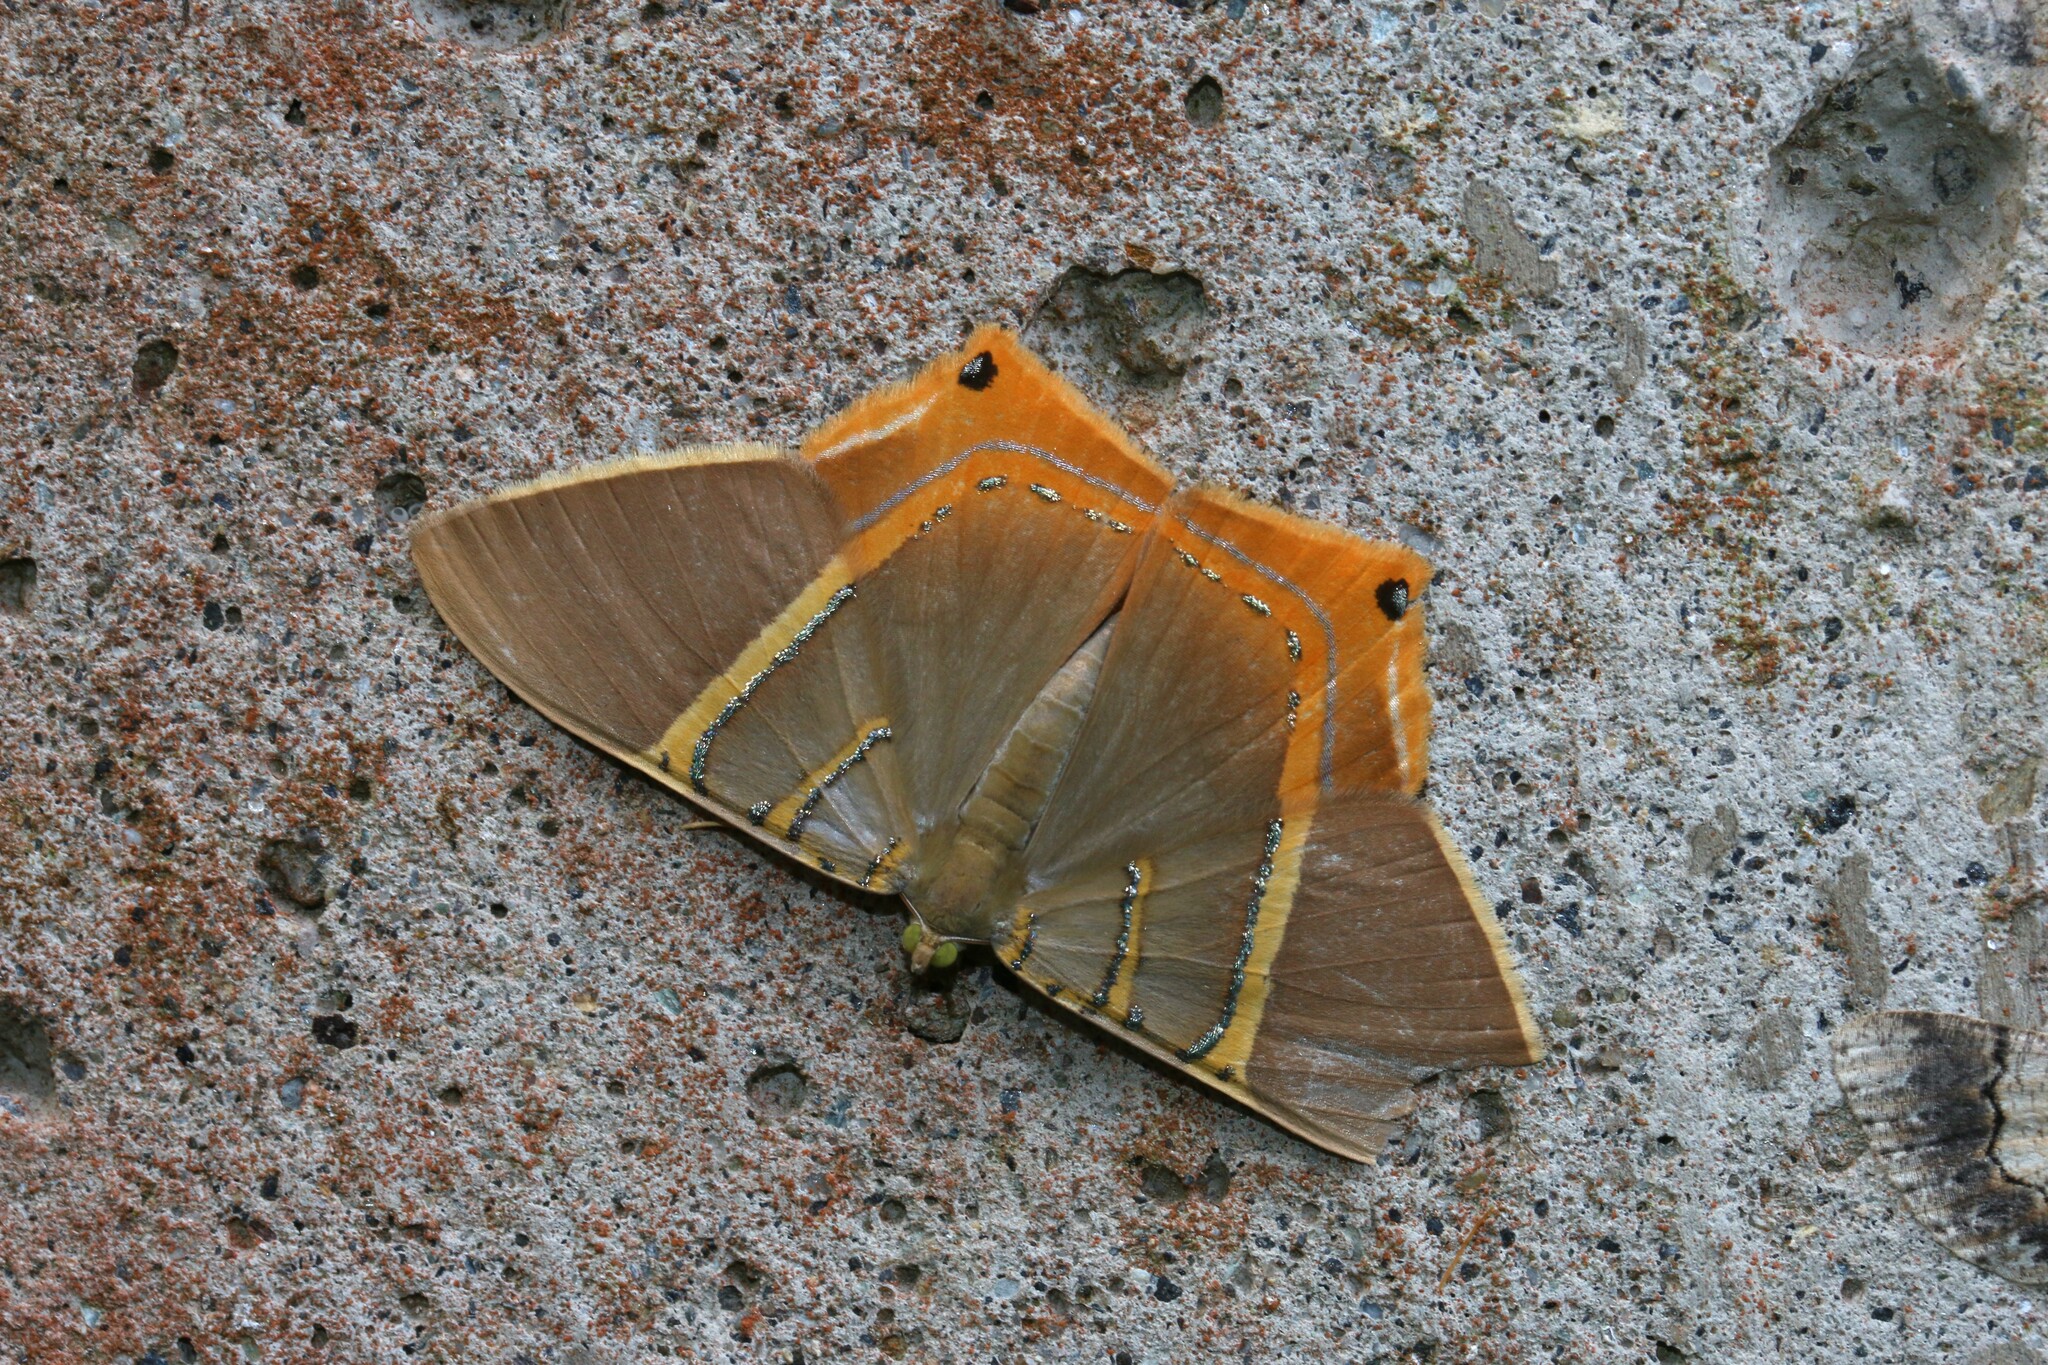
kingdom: Animalia
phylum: Arthropoda
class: Insecta
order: Lepidoptera
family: Geometridae
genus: Phrygionis
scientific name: Phrygionis polita
